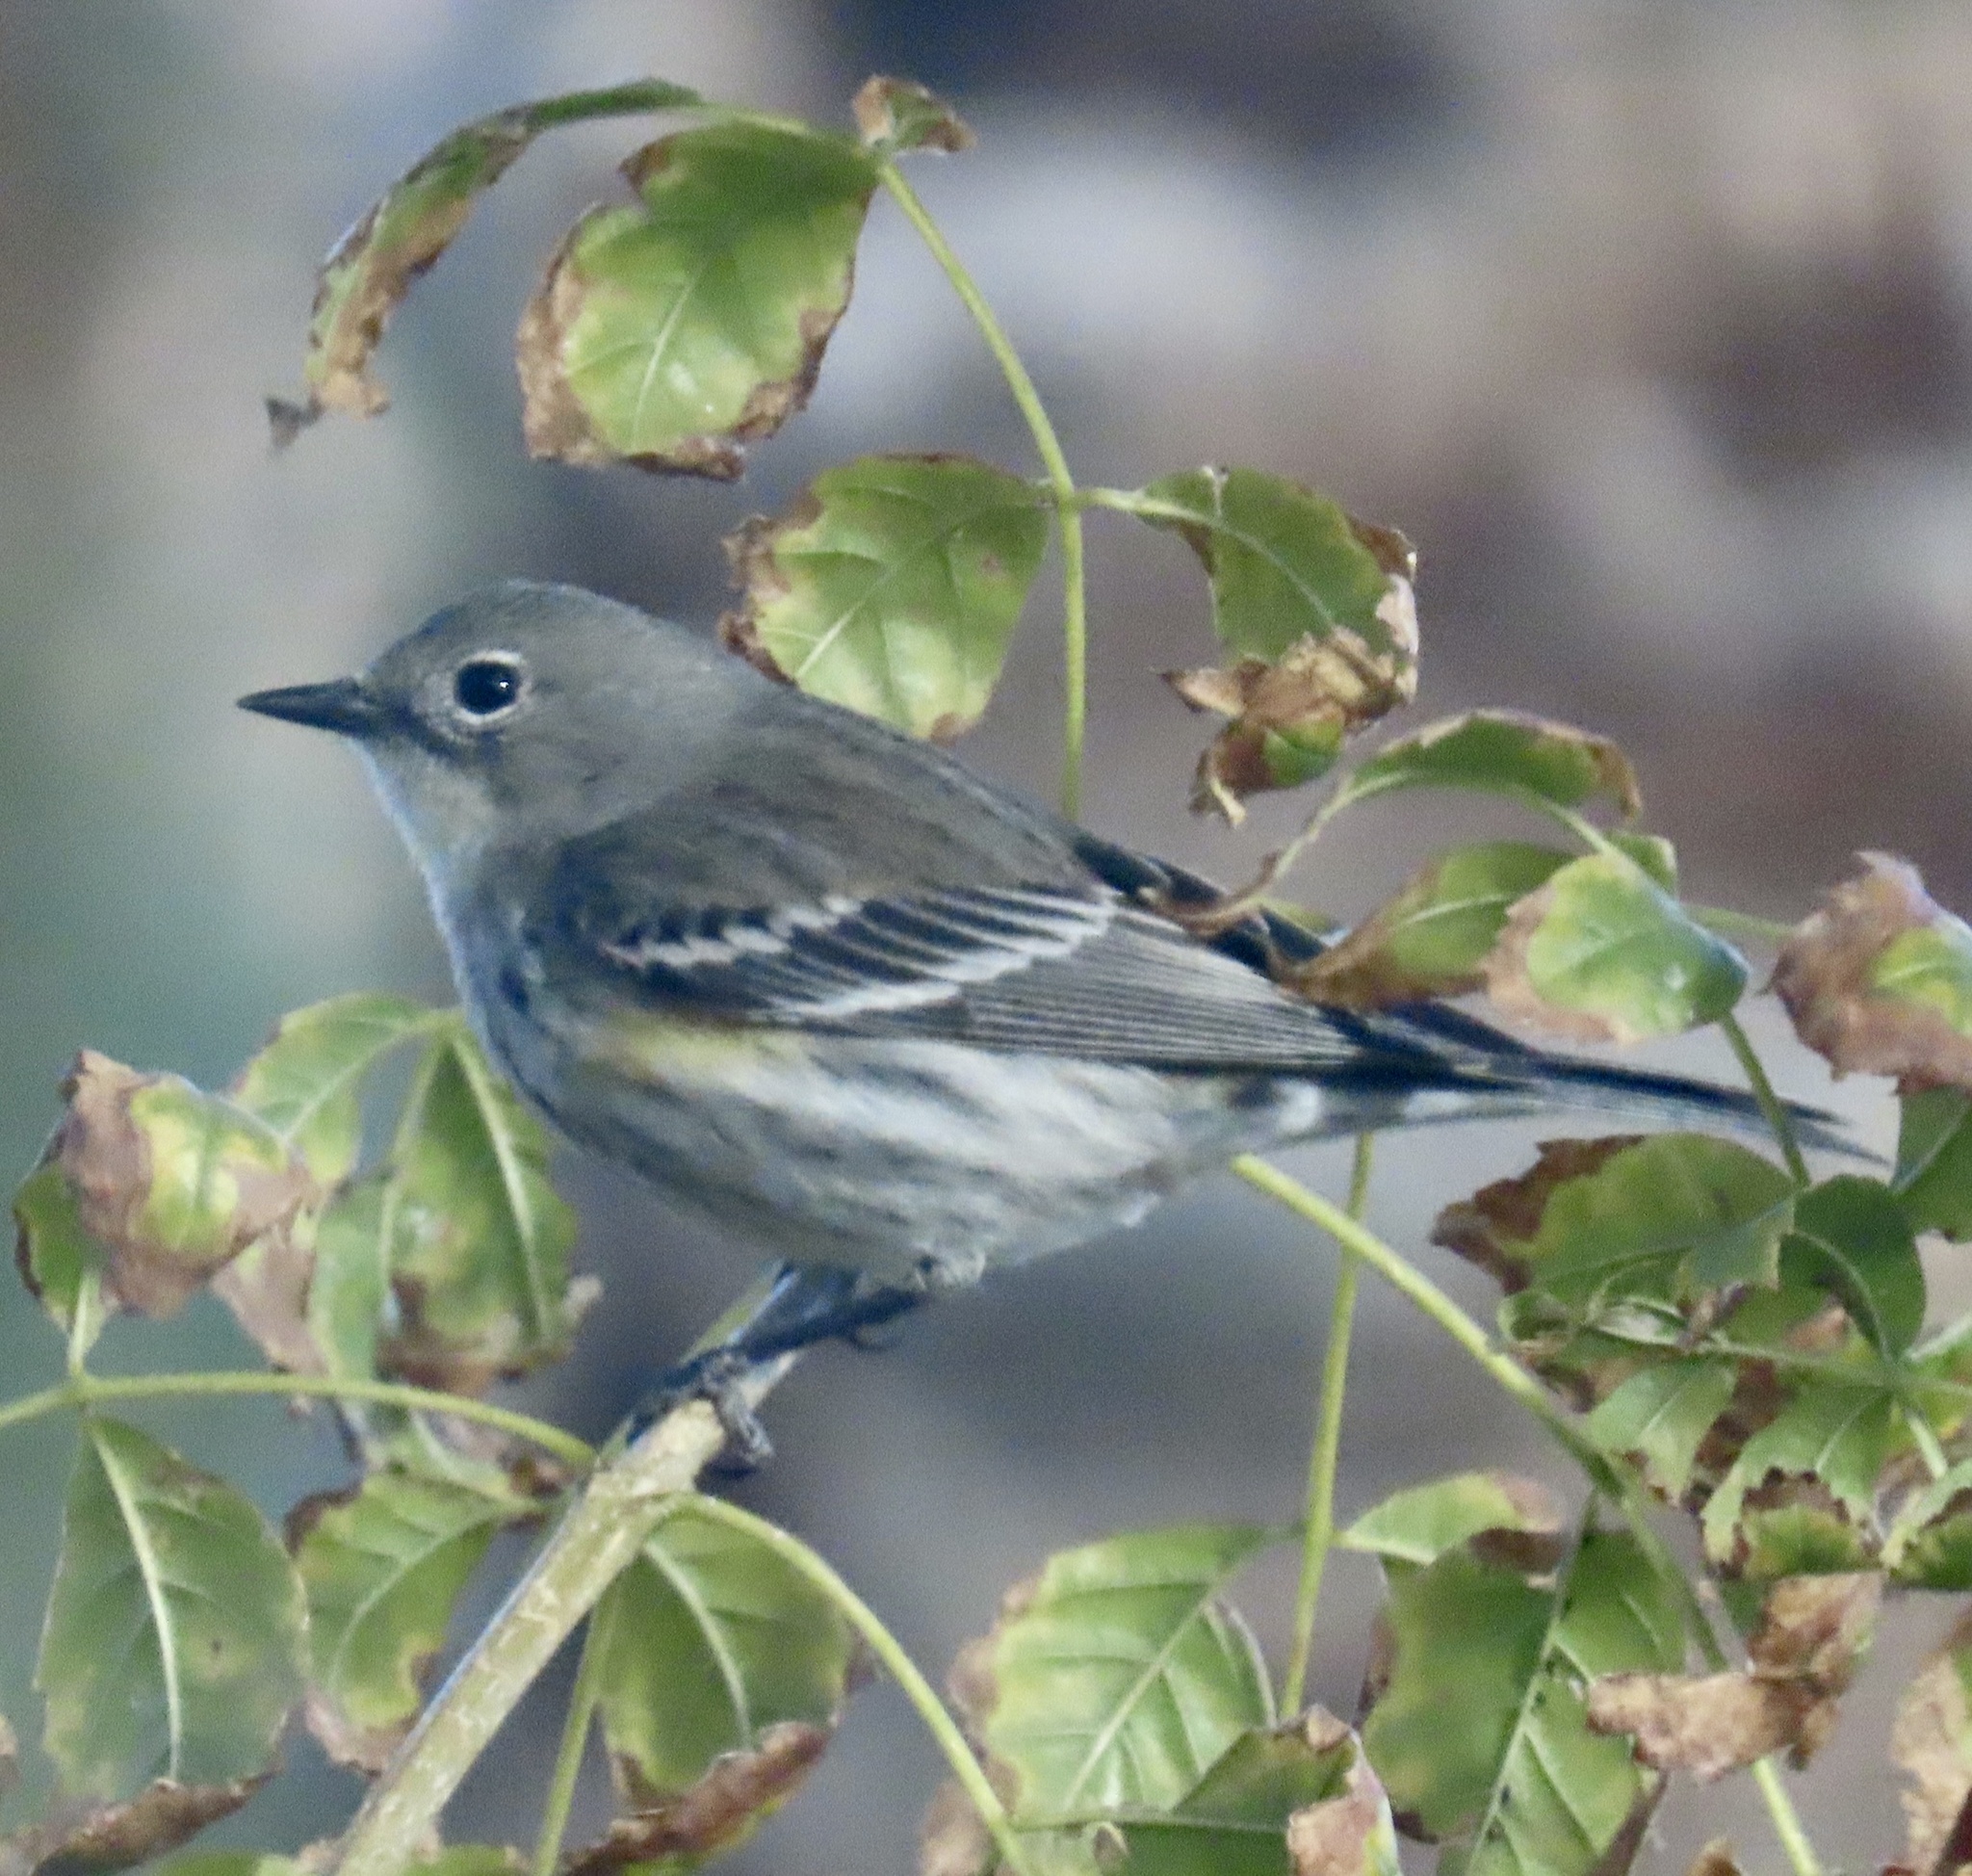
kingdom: Animalia
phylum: Chordata
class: Aves
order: Passeriformes
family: Parulidae
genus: Setophaga
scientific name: Setophaga coronata
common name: Myrtle warbler
